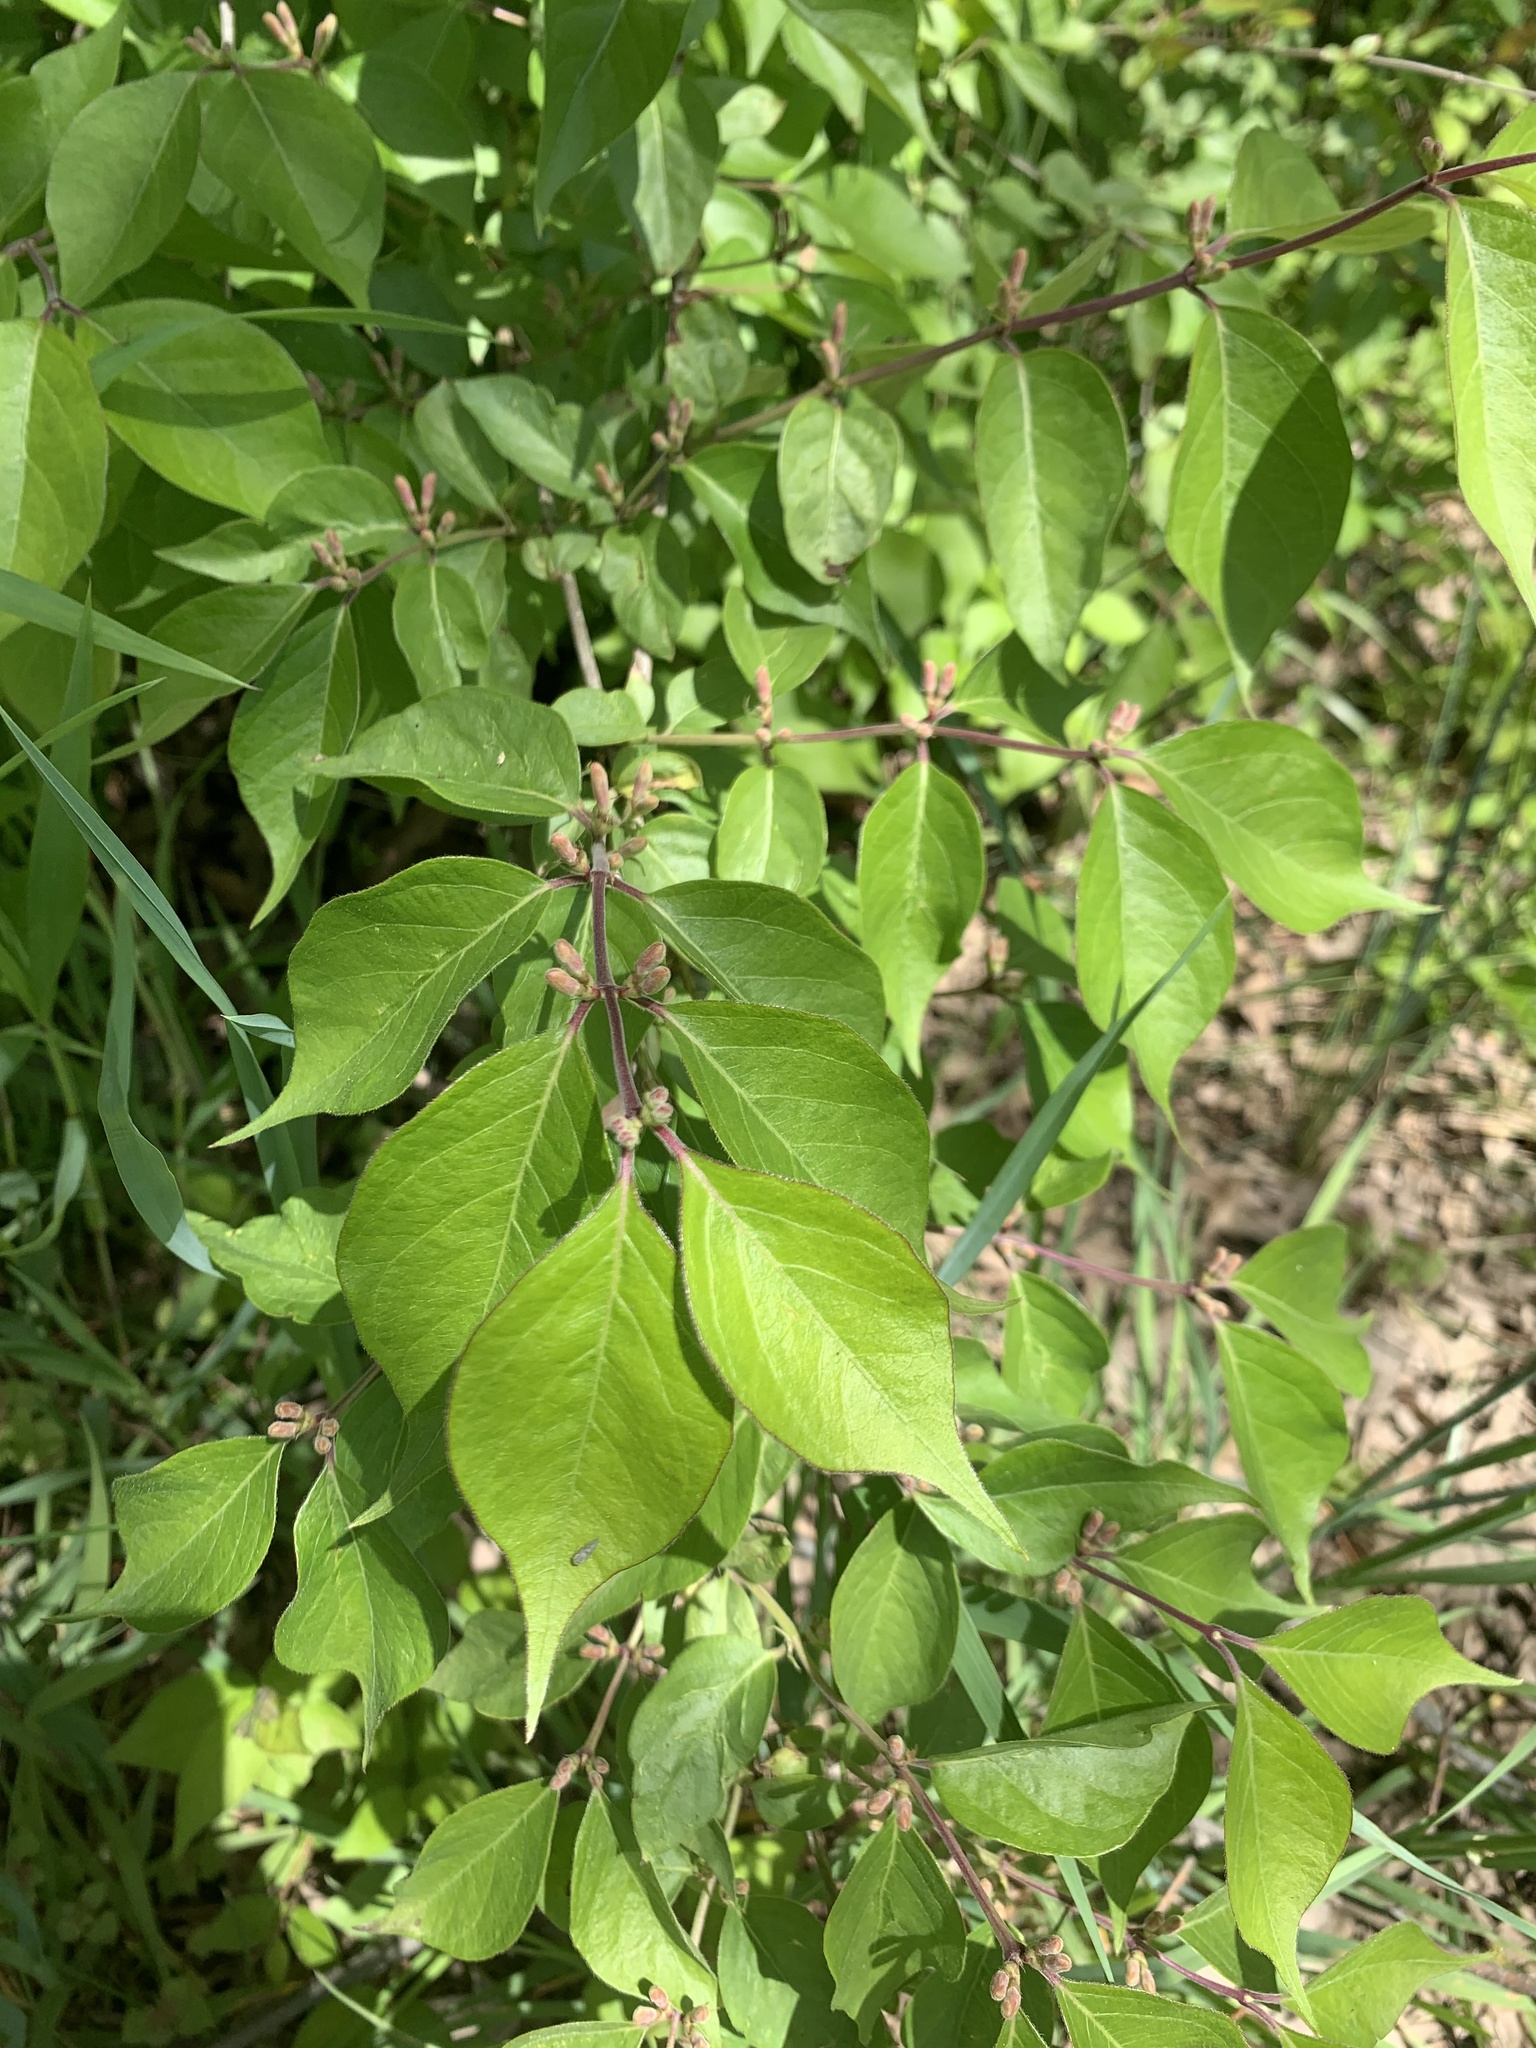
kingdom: Plantae
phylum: Tracheophyta
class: Magnoliopsida
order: Dipsacales
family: Caprifoliaceae
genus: Lonicera
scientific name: Lonicera maackii
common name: Amur honeysuckle
